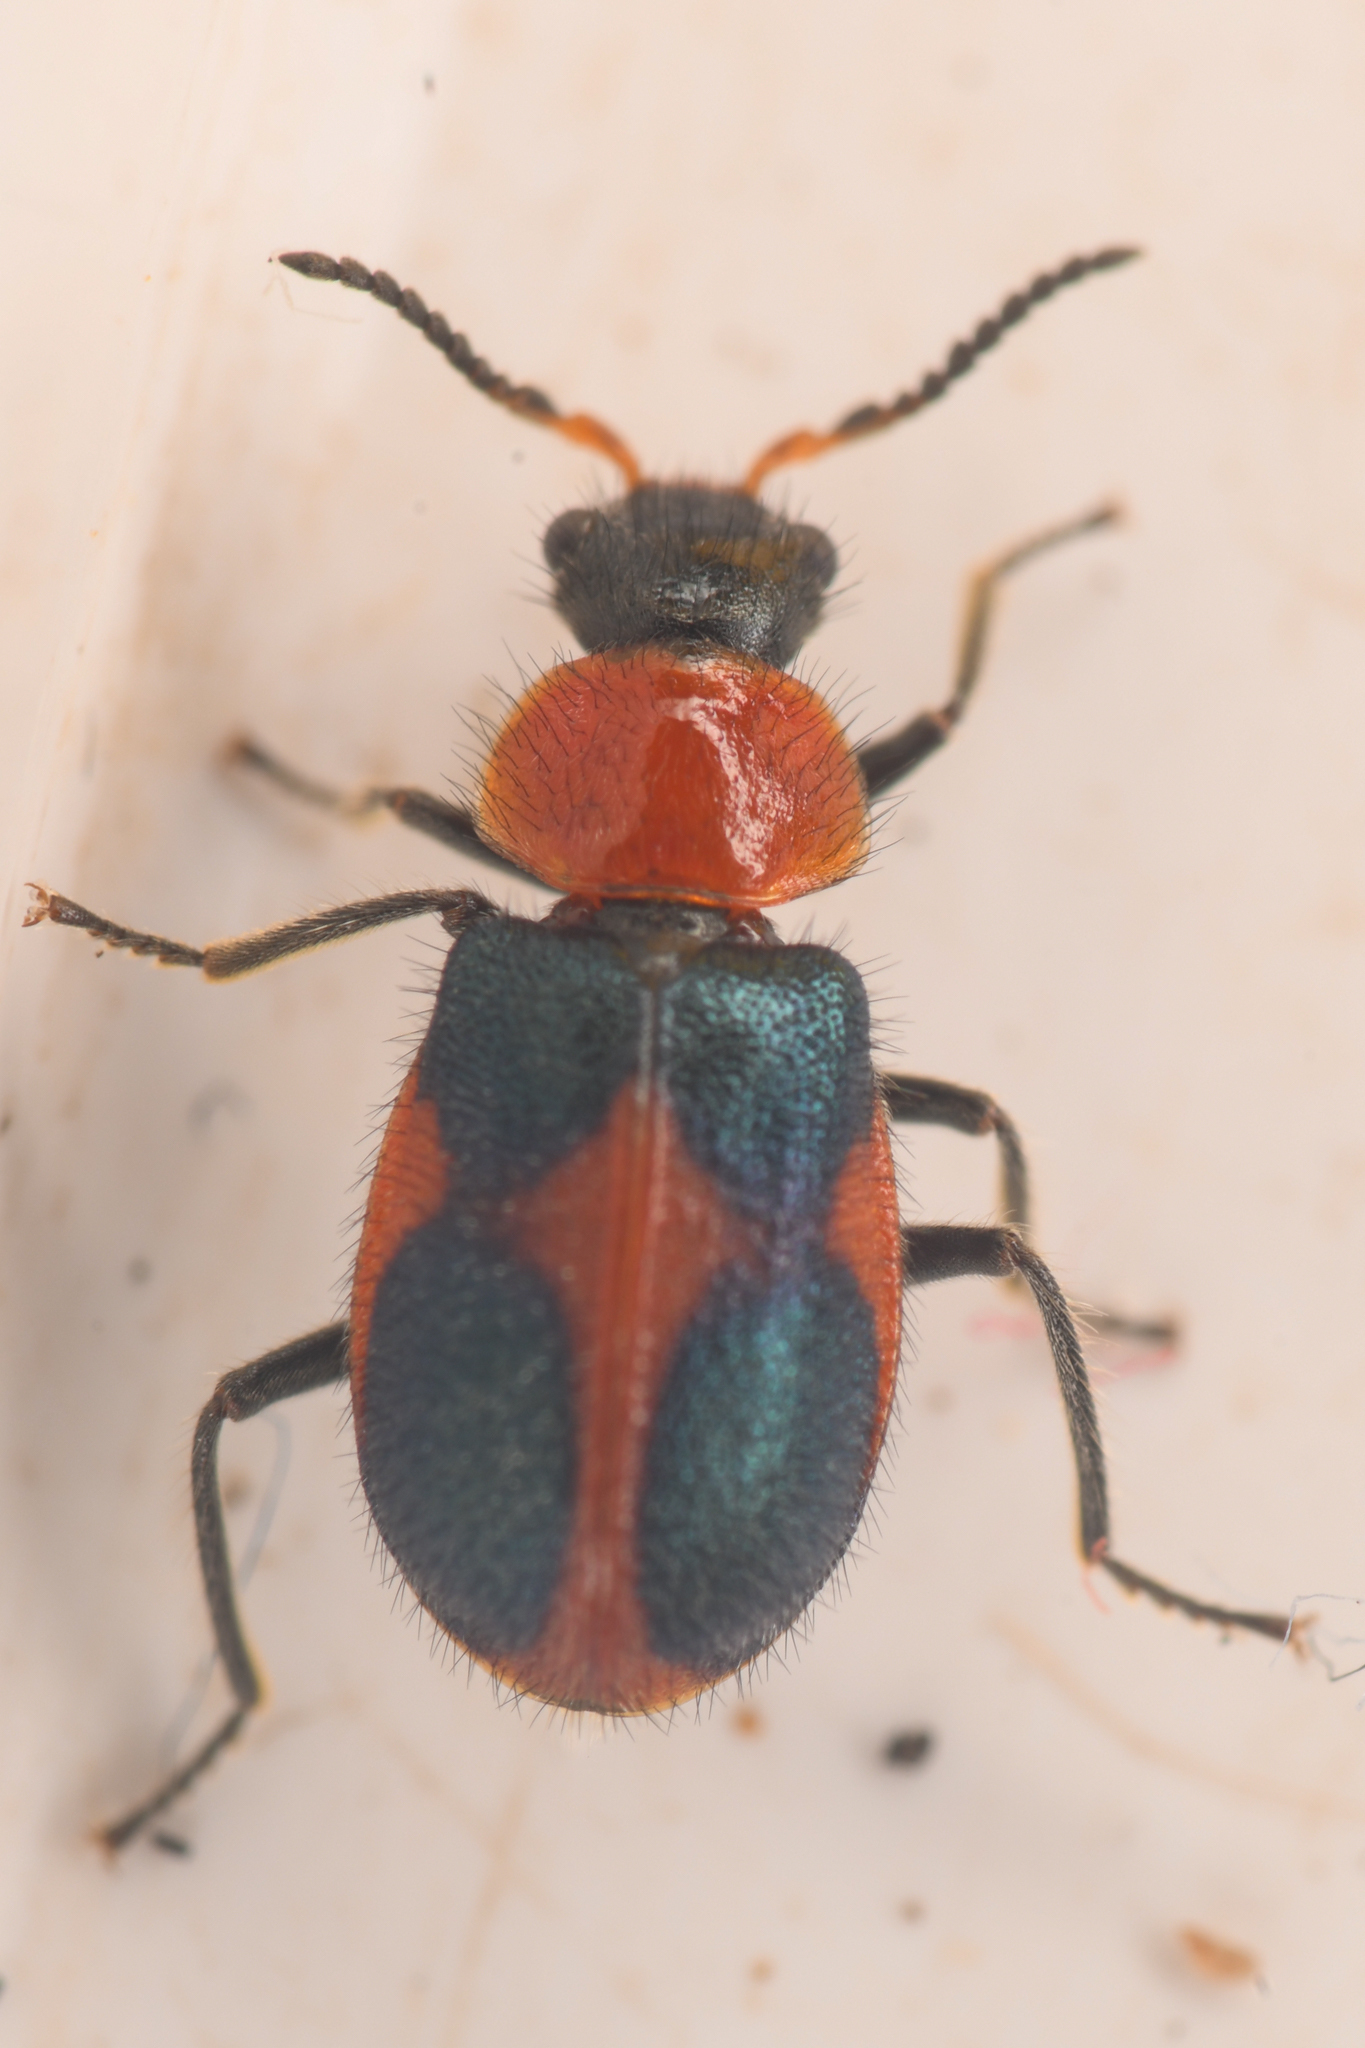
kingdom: Animalia
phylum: Arthropoda
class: Insecta
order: Coleoptera
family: Melyridae
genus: Collops
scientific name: Collops quadrimaculatus
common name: Four-spotted collops
